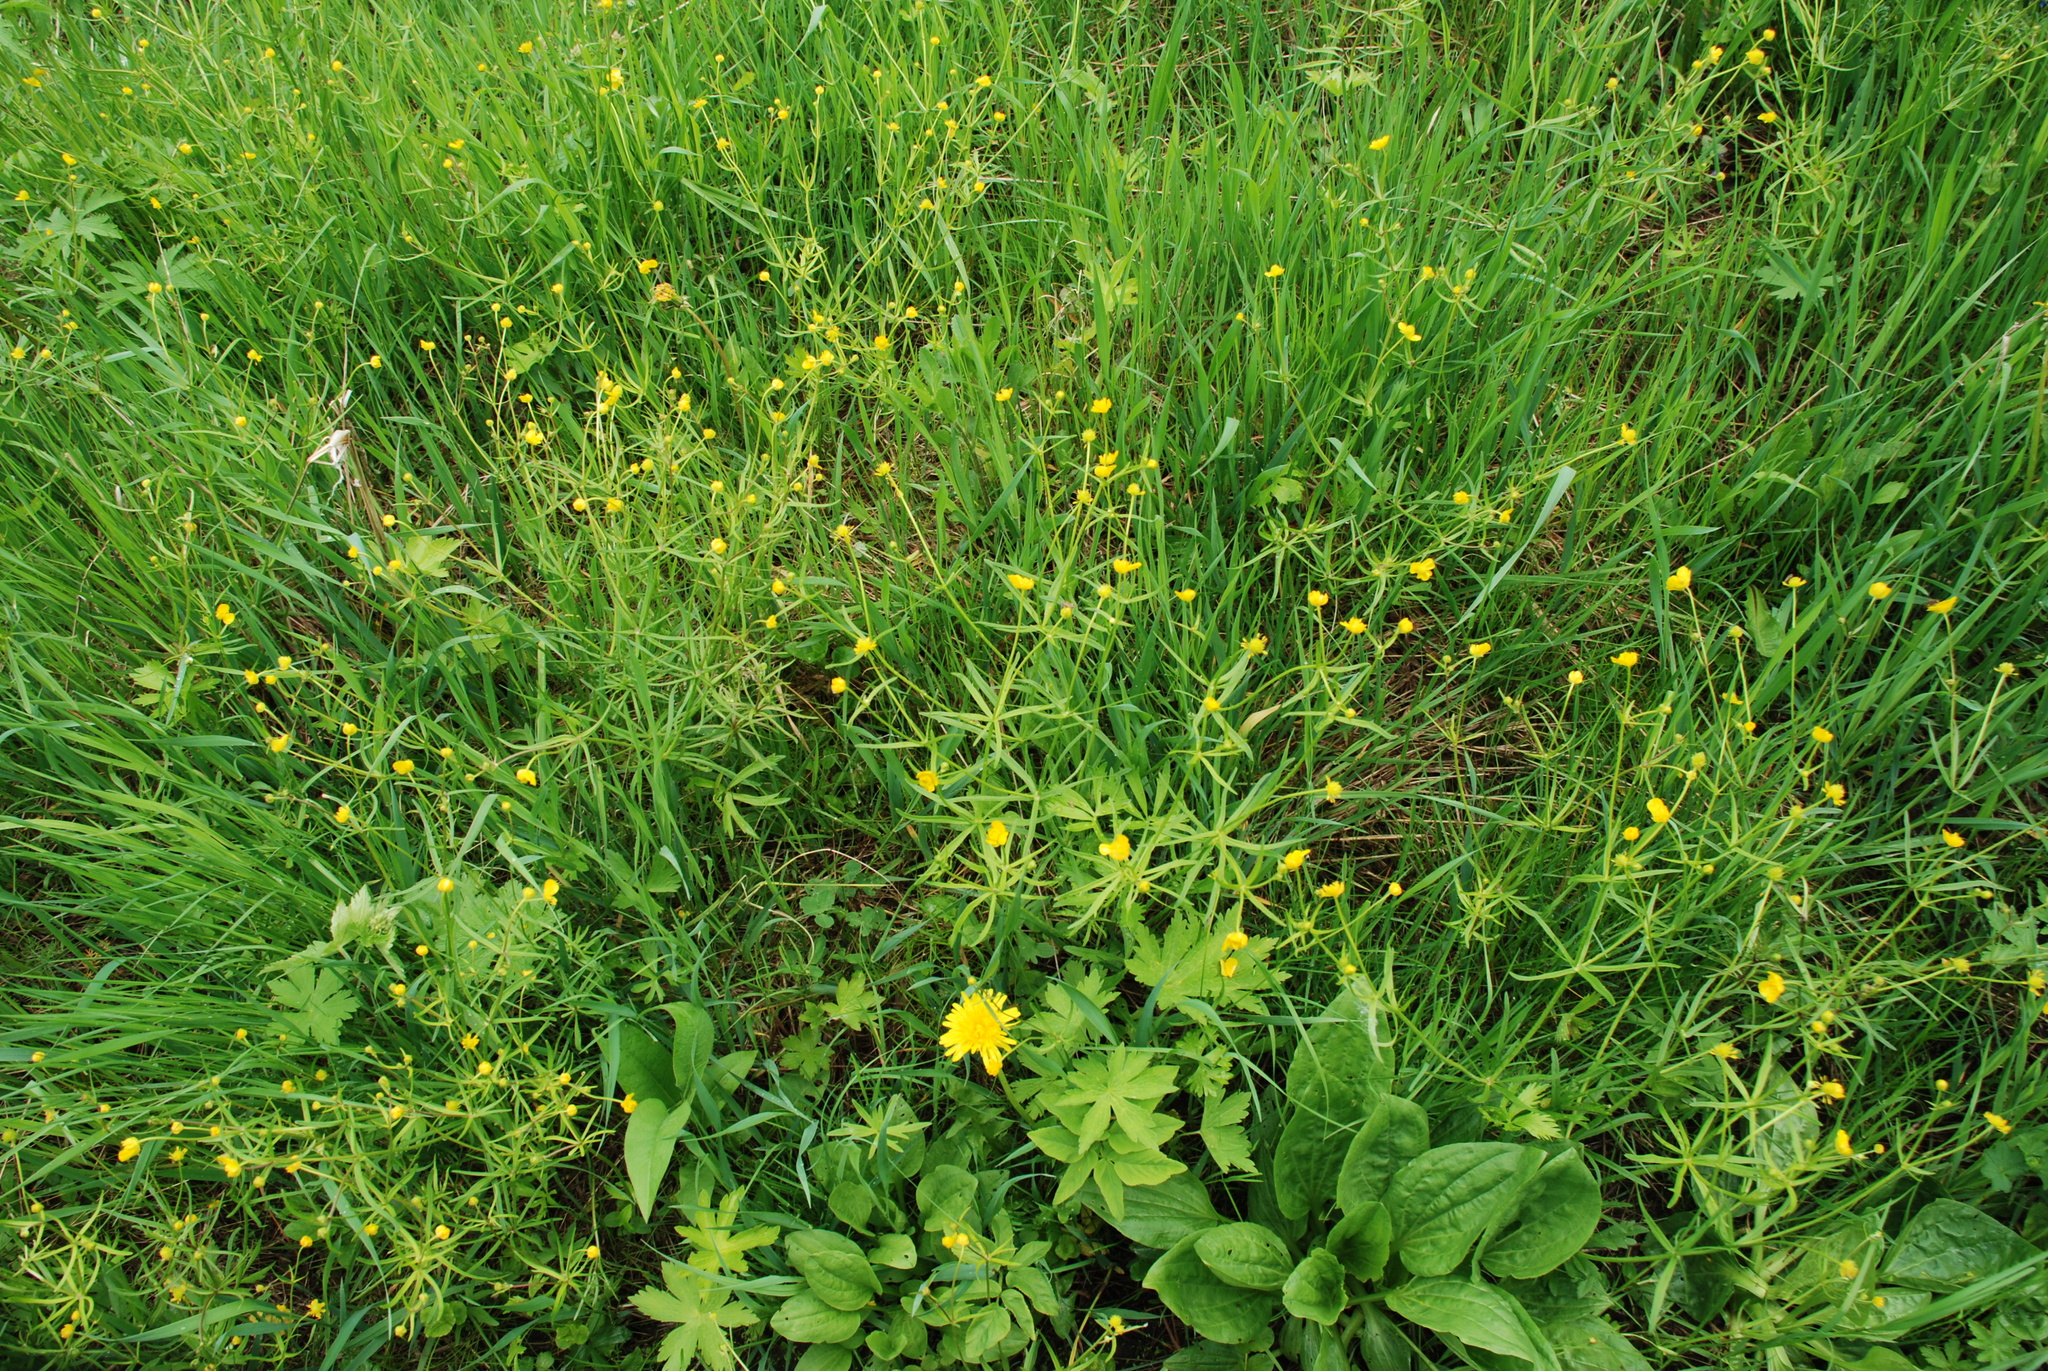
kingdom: Plantae
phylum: Tracheophyta
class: Magnoliopsida
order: Ranunculales
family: Ranunculaceae
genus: Ranunculus
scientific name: Ranunculus auricomus
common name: Goldilocks buttercup
